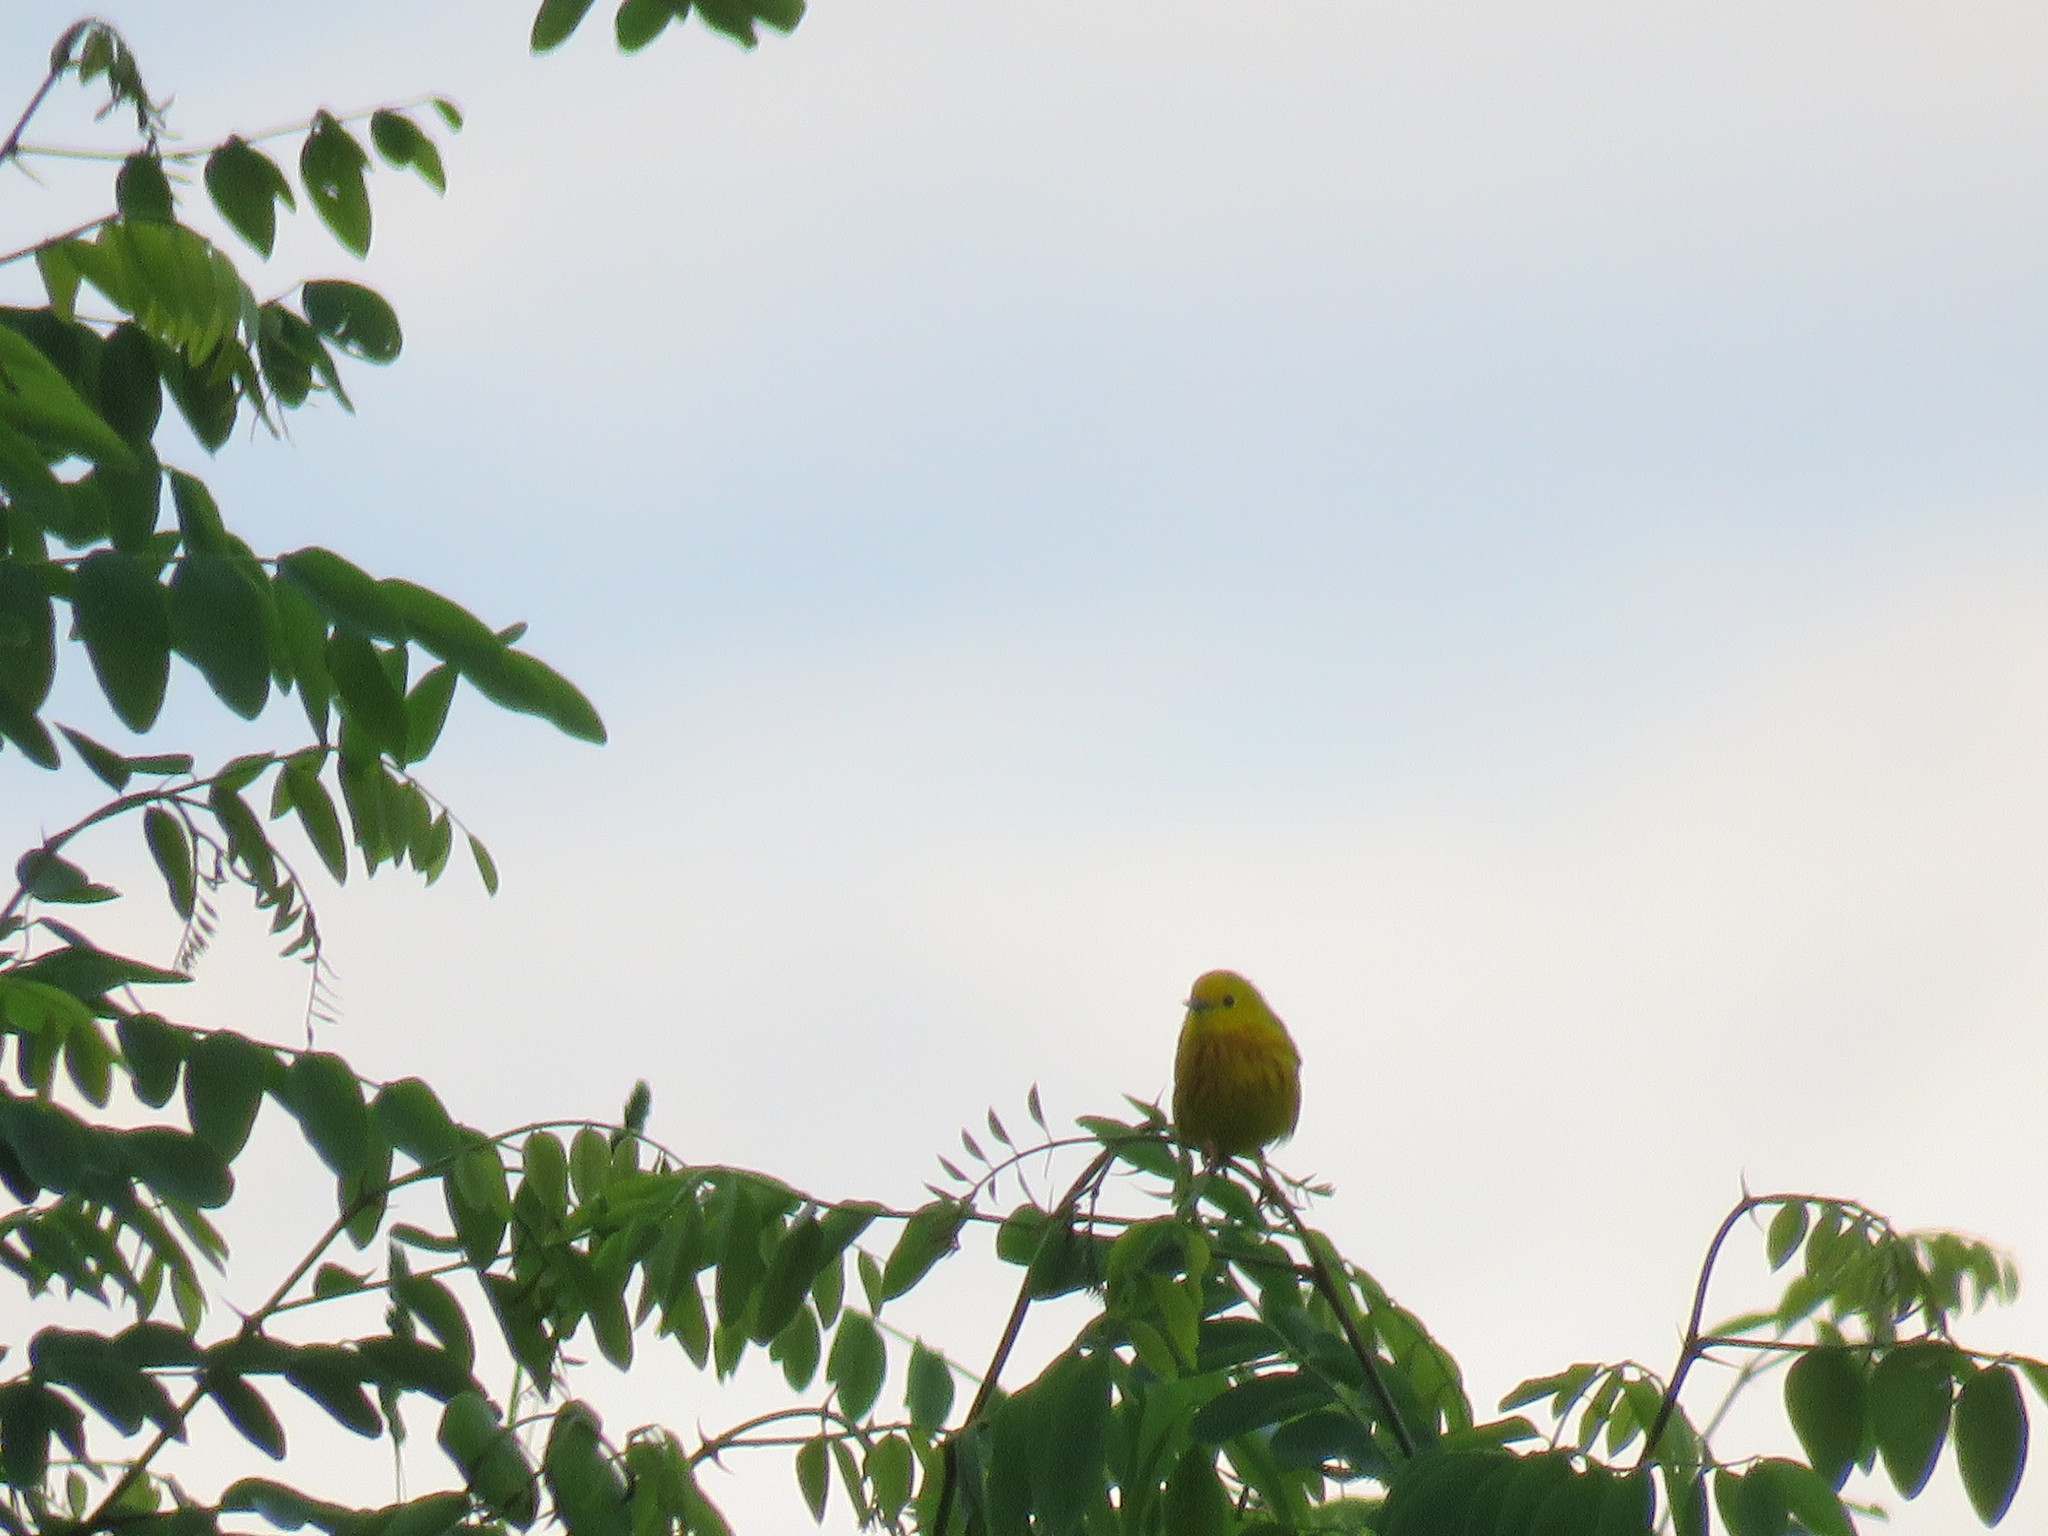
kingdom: Animalia
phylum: Chordata
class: Aves
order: Passeriformes
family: Parulidae
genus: Setophaga
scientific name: Setophaga petechia
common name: Yellow warbler
